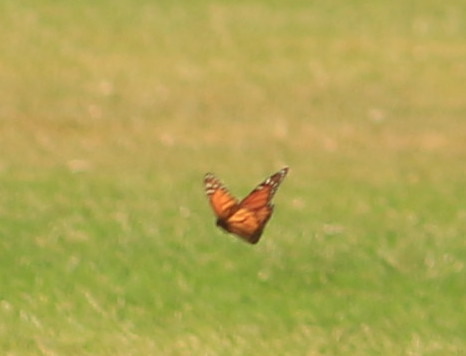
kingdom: Animalia
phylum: Arthropoda
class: Insecta
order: Lepidoptera
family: Nymphalidae
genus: Danaus
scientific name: Danaus plexippus
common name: Monarch
